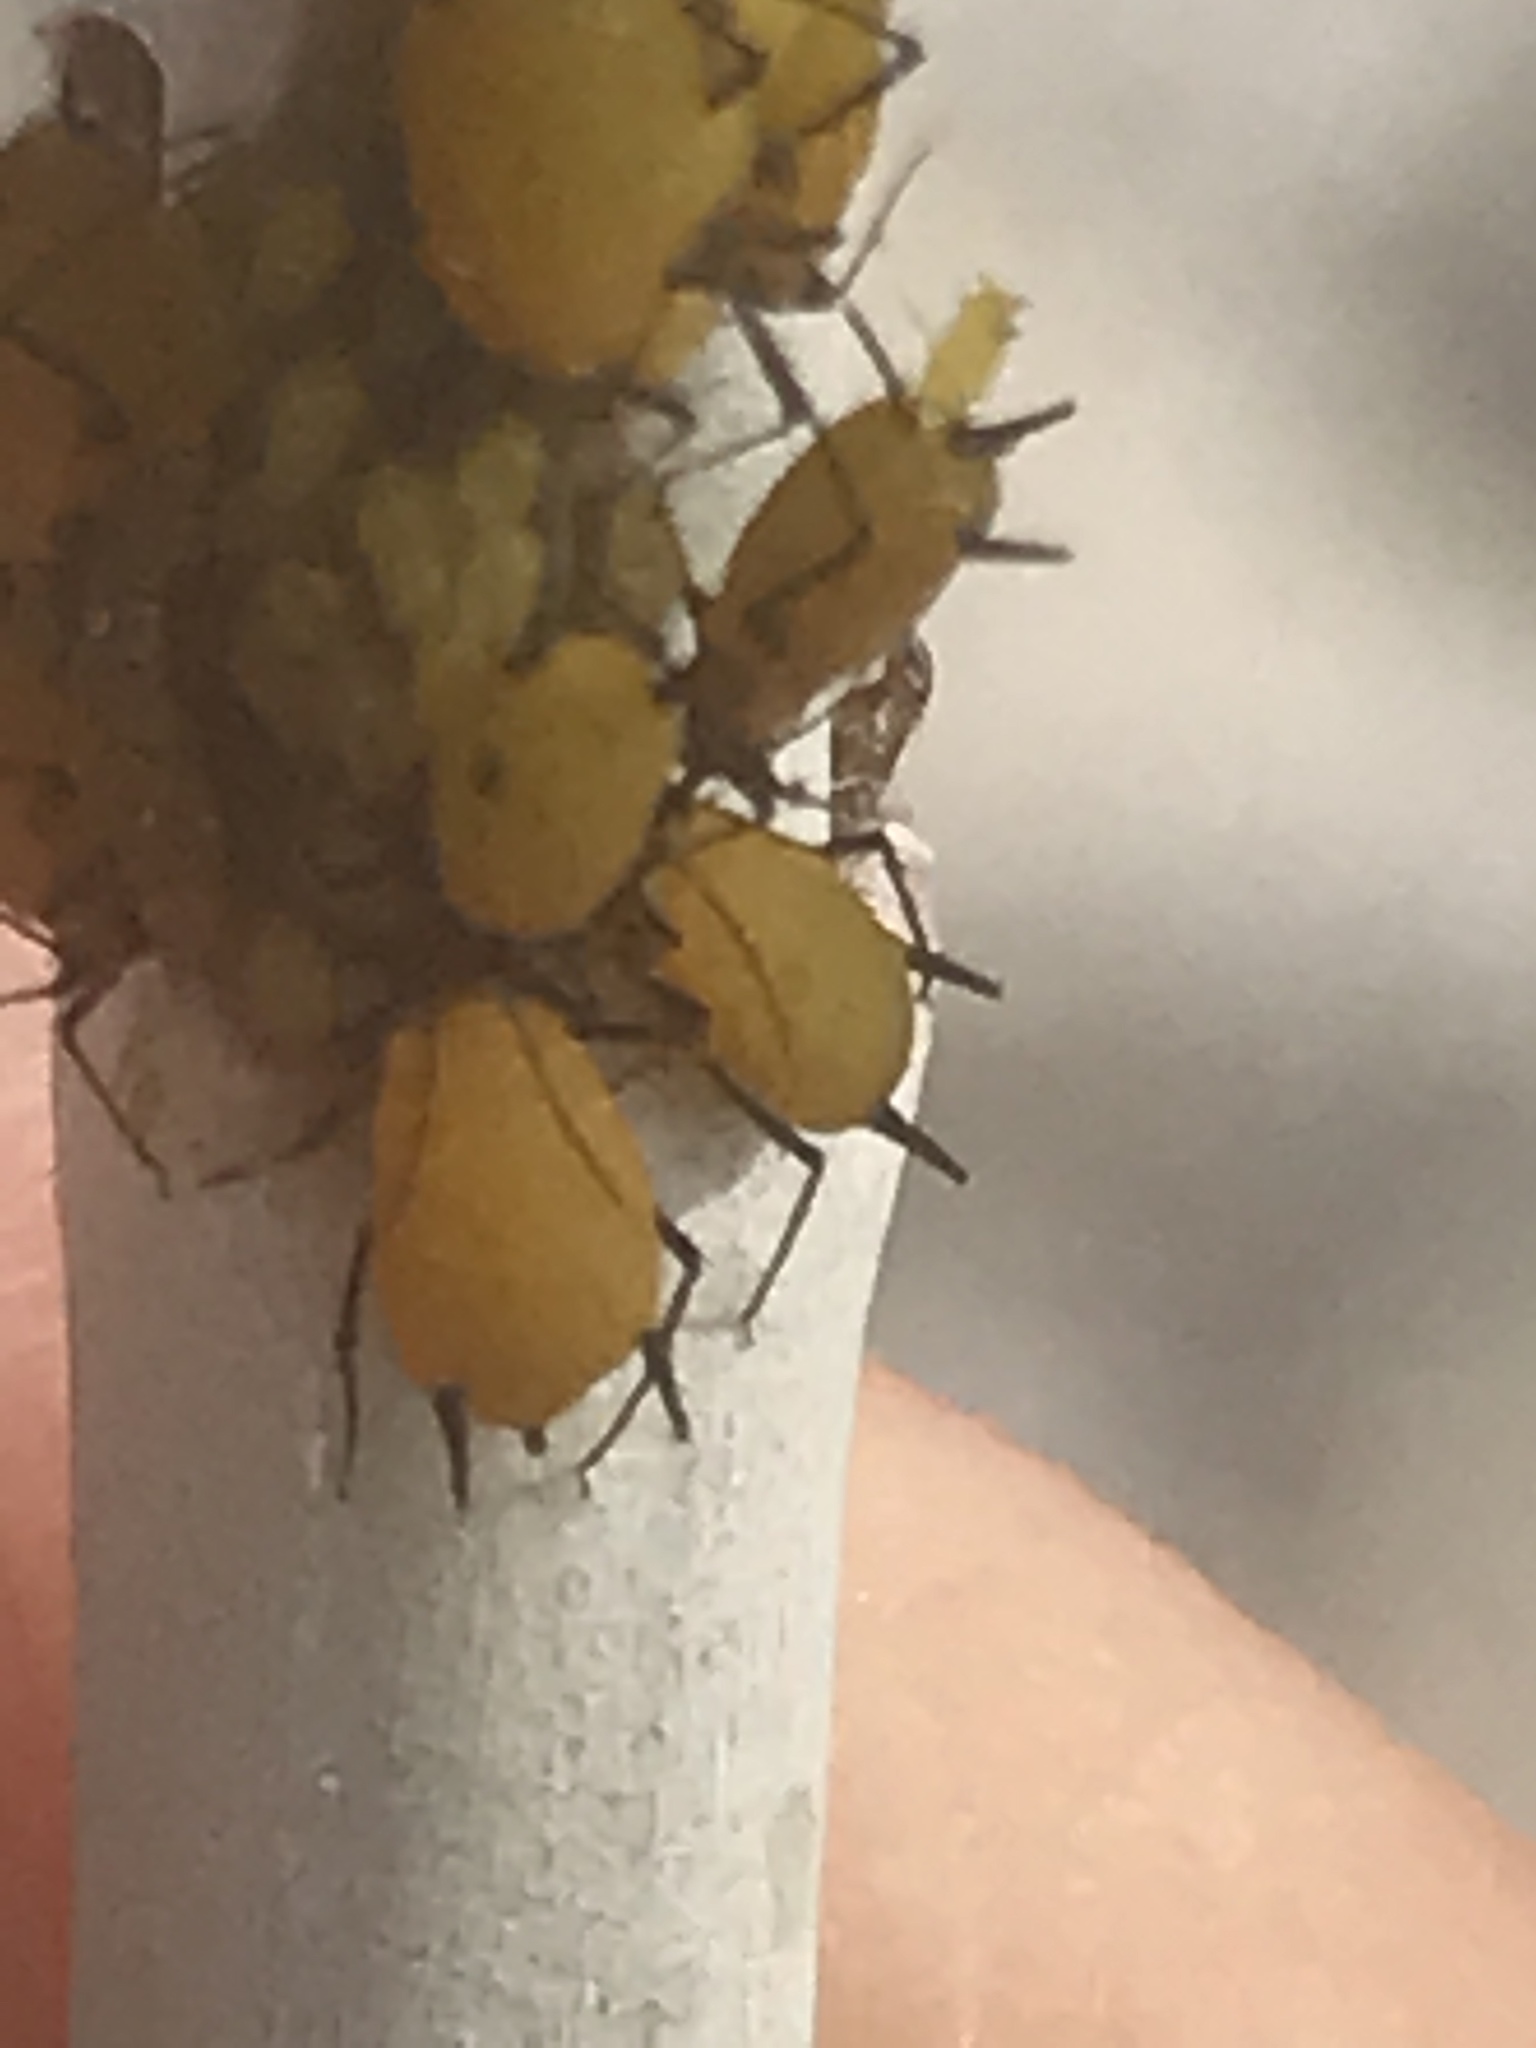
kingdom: Animalia
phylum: Arthropoda
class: Insecta
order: Hemiptera
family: Aphididae
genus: Aphis
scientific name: Aphis nerii
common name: Oleander aphid
